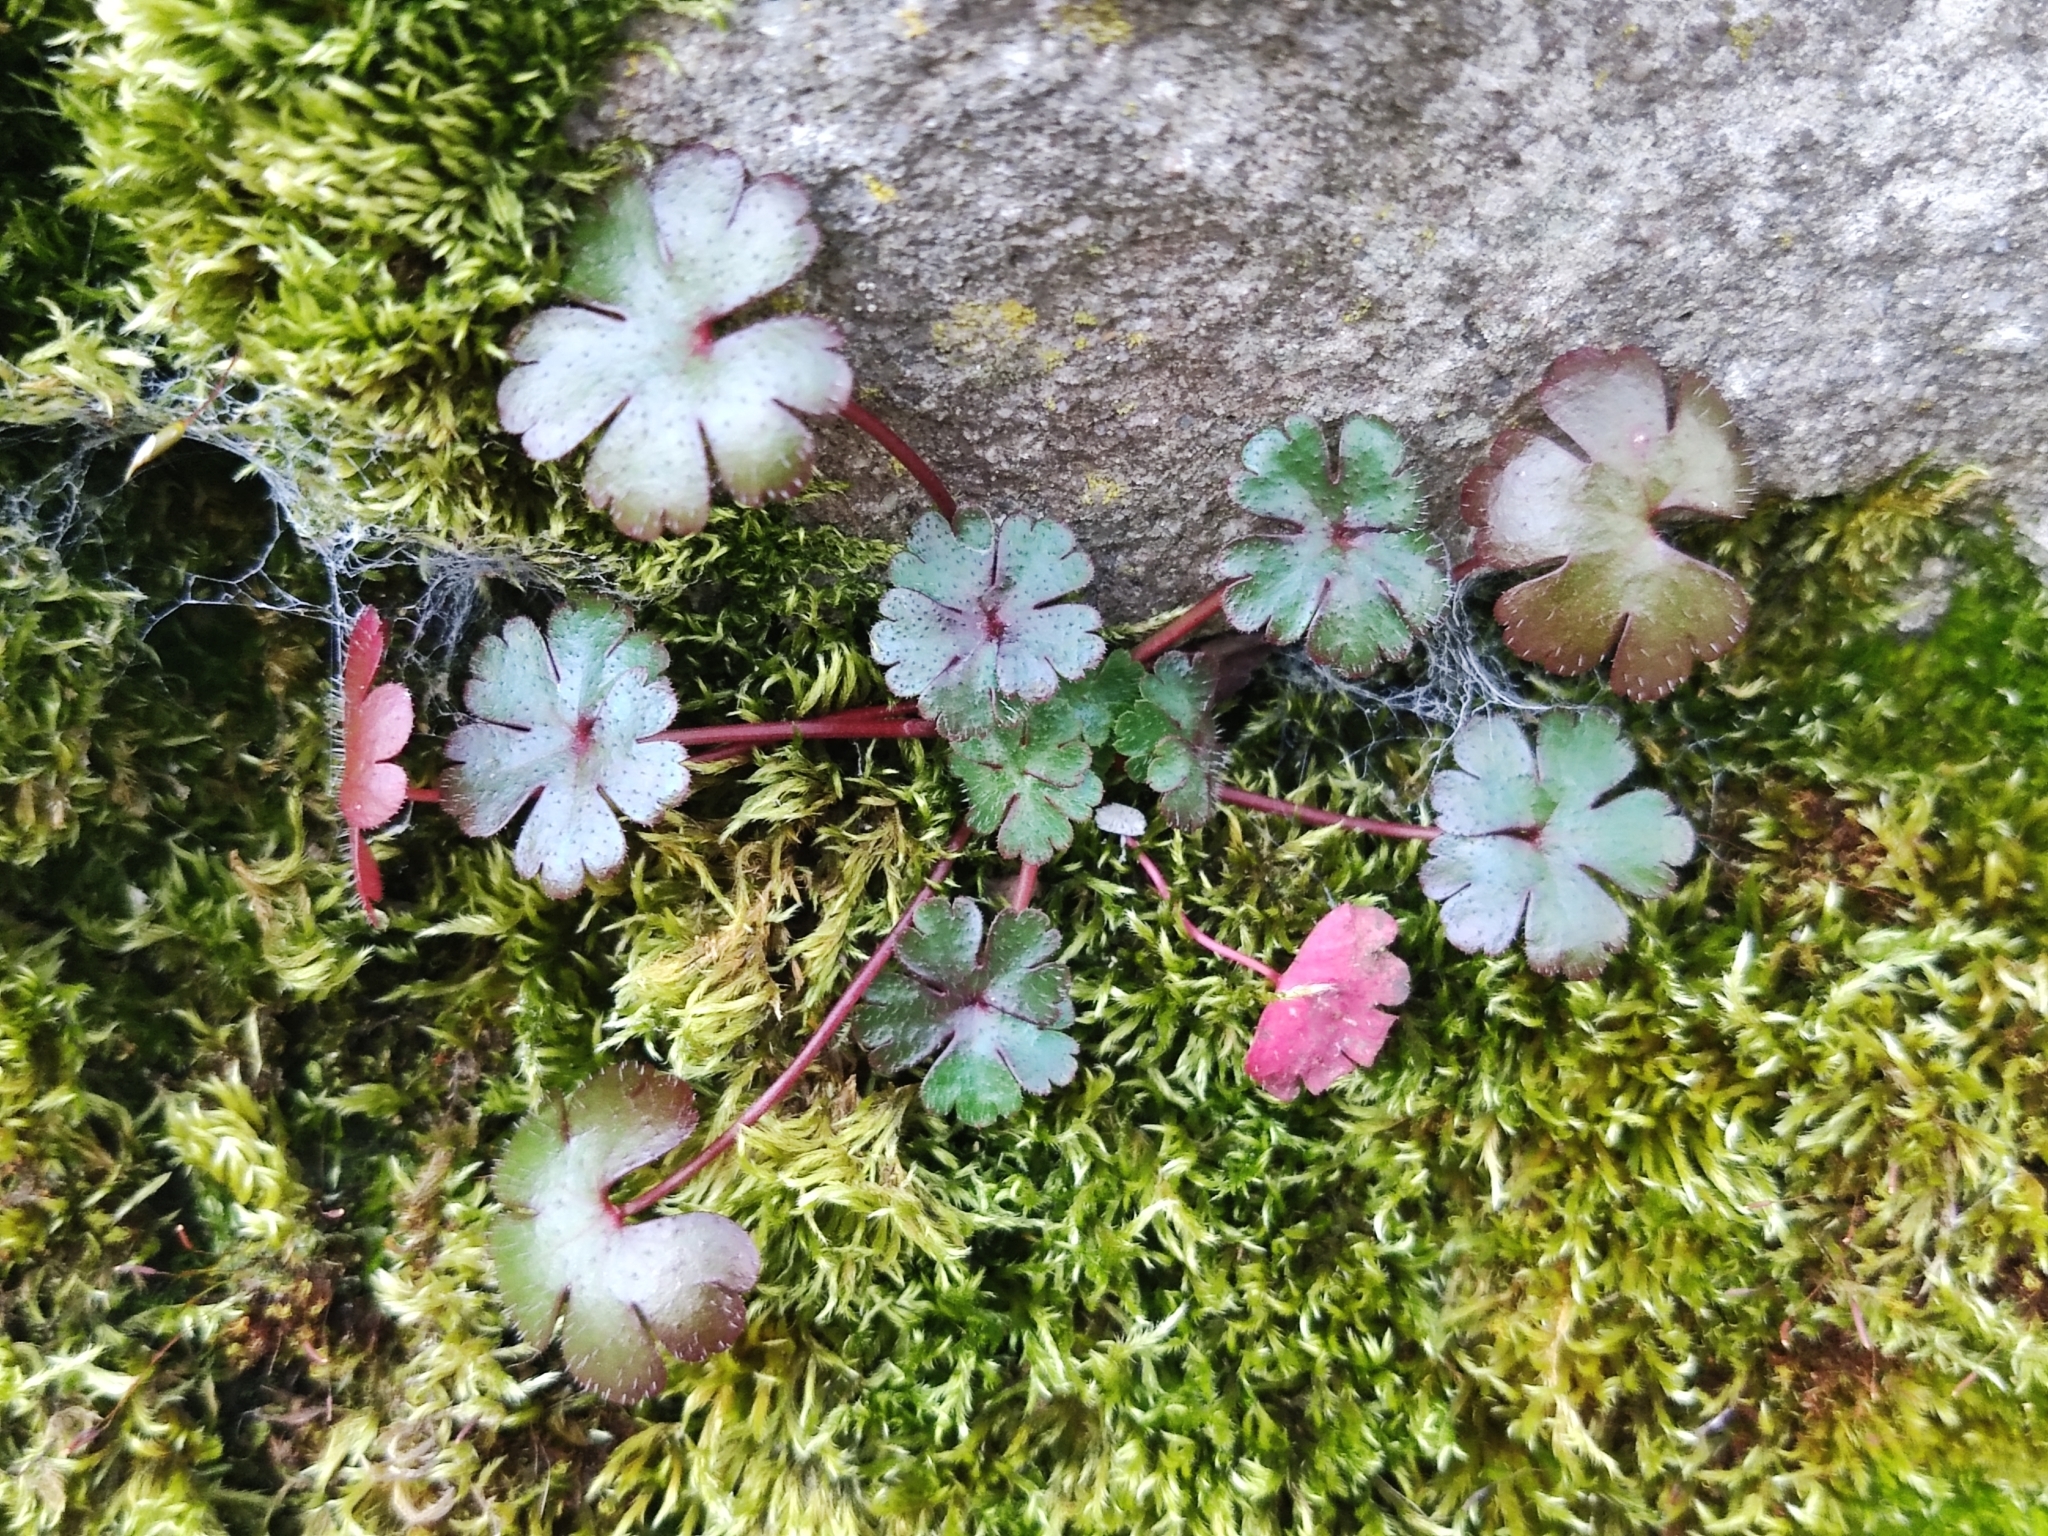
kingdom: Plantae
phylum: Tracheophyta
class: Magnoliopsida
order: Geraniales
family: Geraniaceae
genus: Geranium
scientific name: Geranium lucidum
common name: Shining crane's-bill
